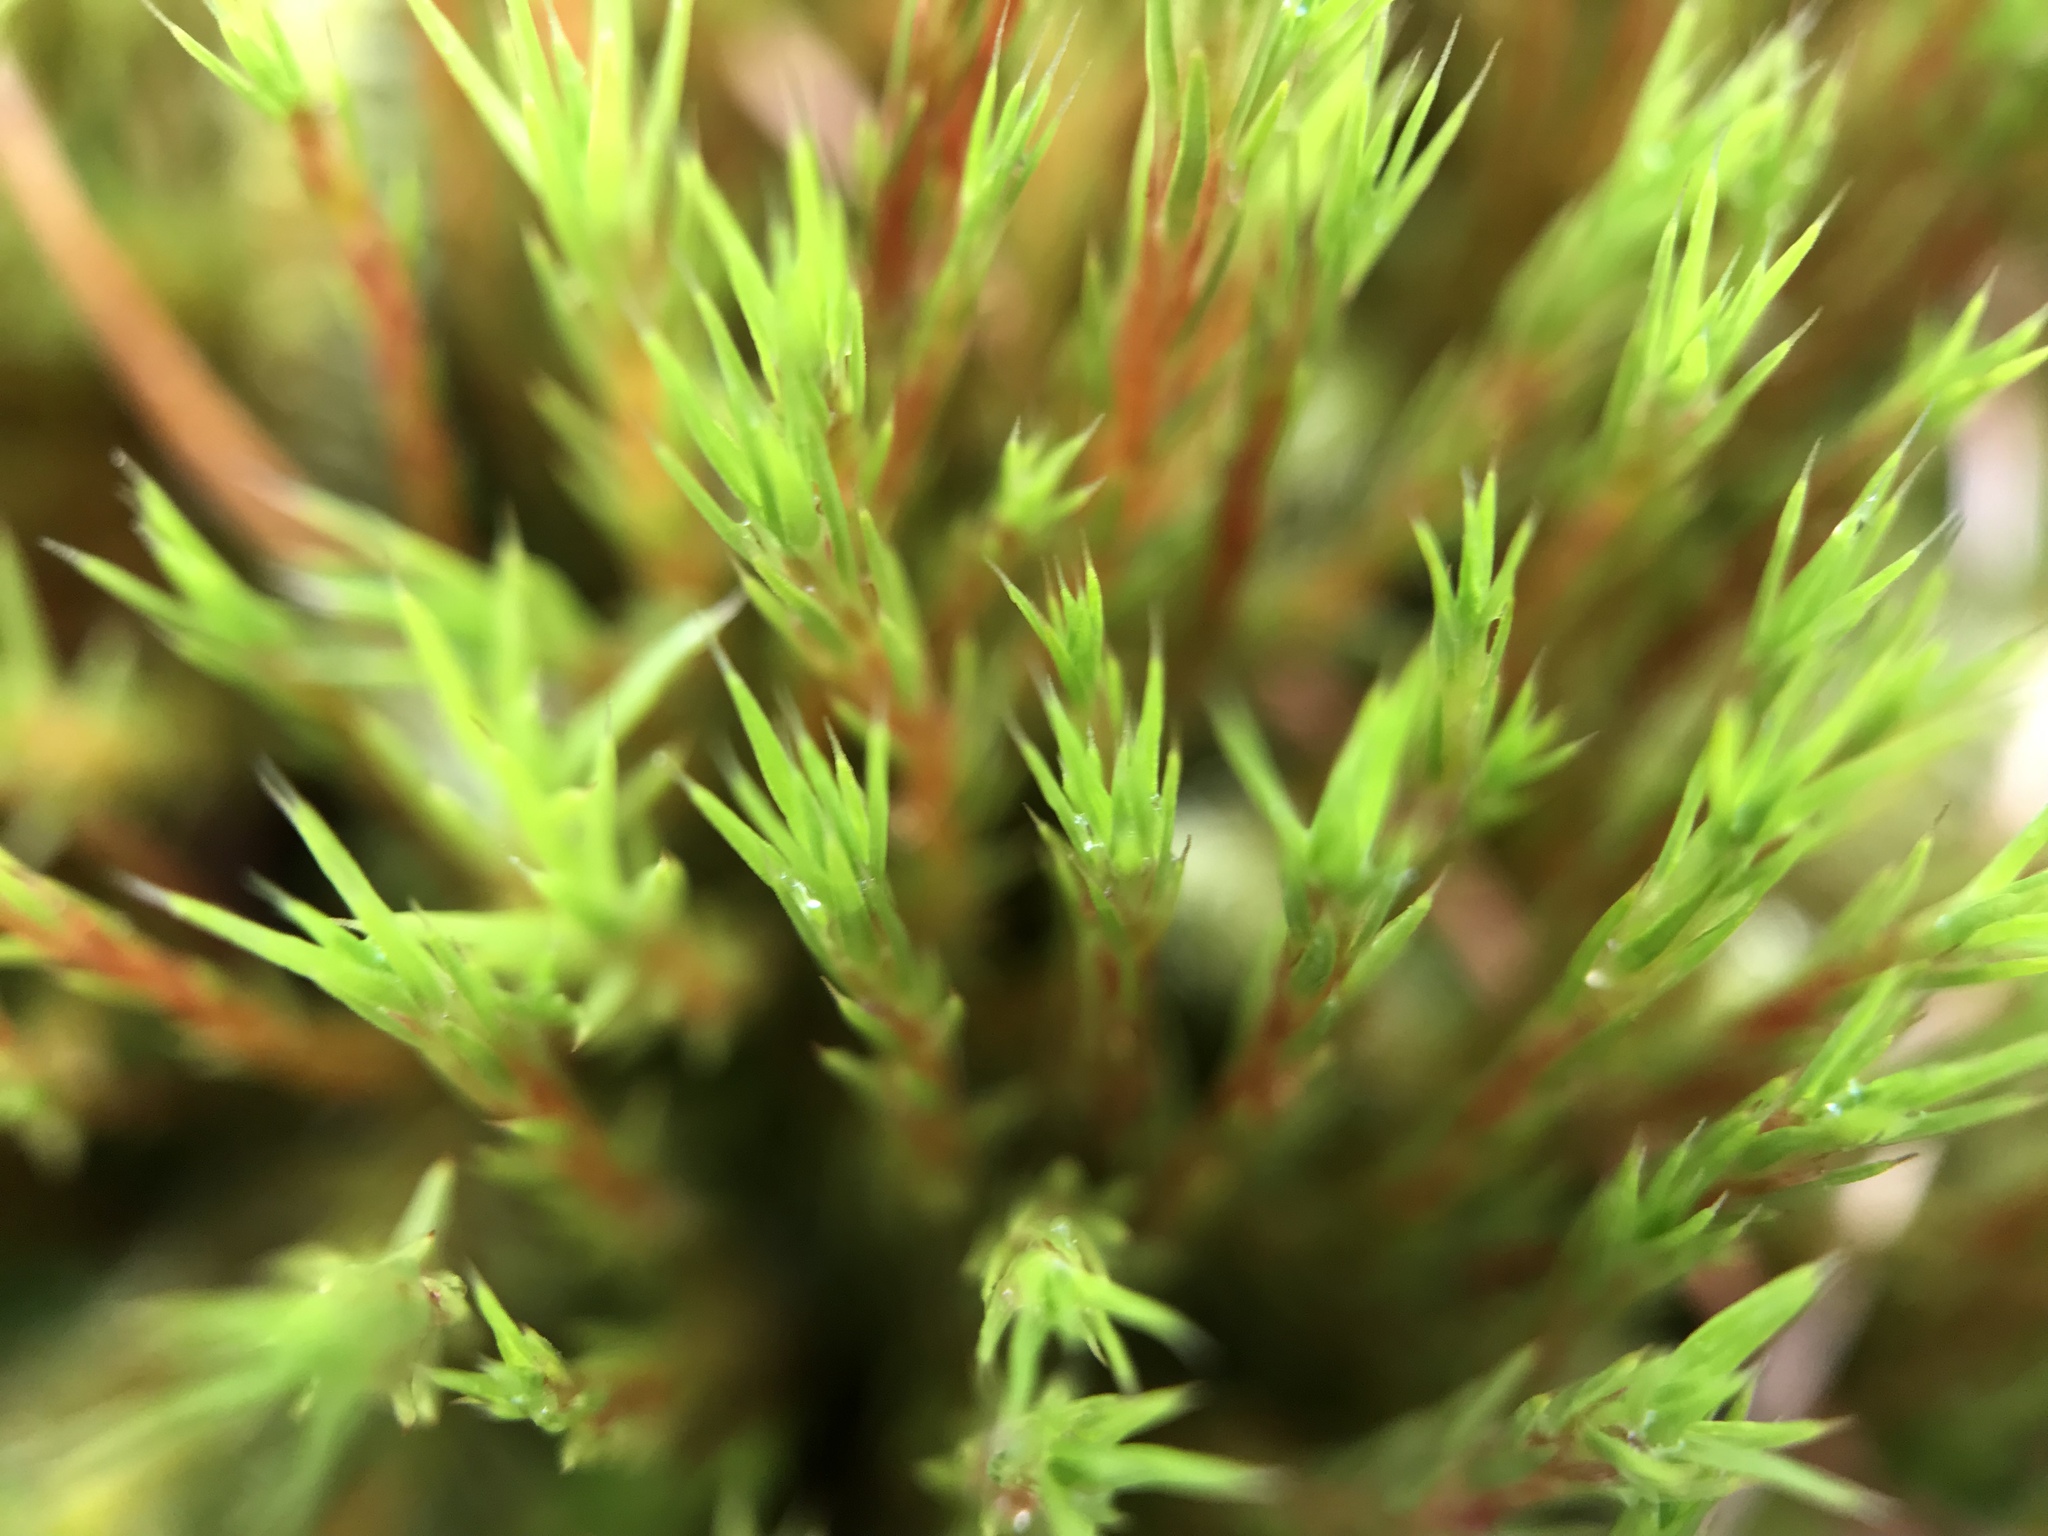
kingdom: Plantae
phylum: Bryophyta
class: Polytrichopsida
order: Polytrichales
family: Polytrichaceae
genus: Polytrichum
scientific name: Polytrichum strictum
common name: Bog haircap moss
